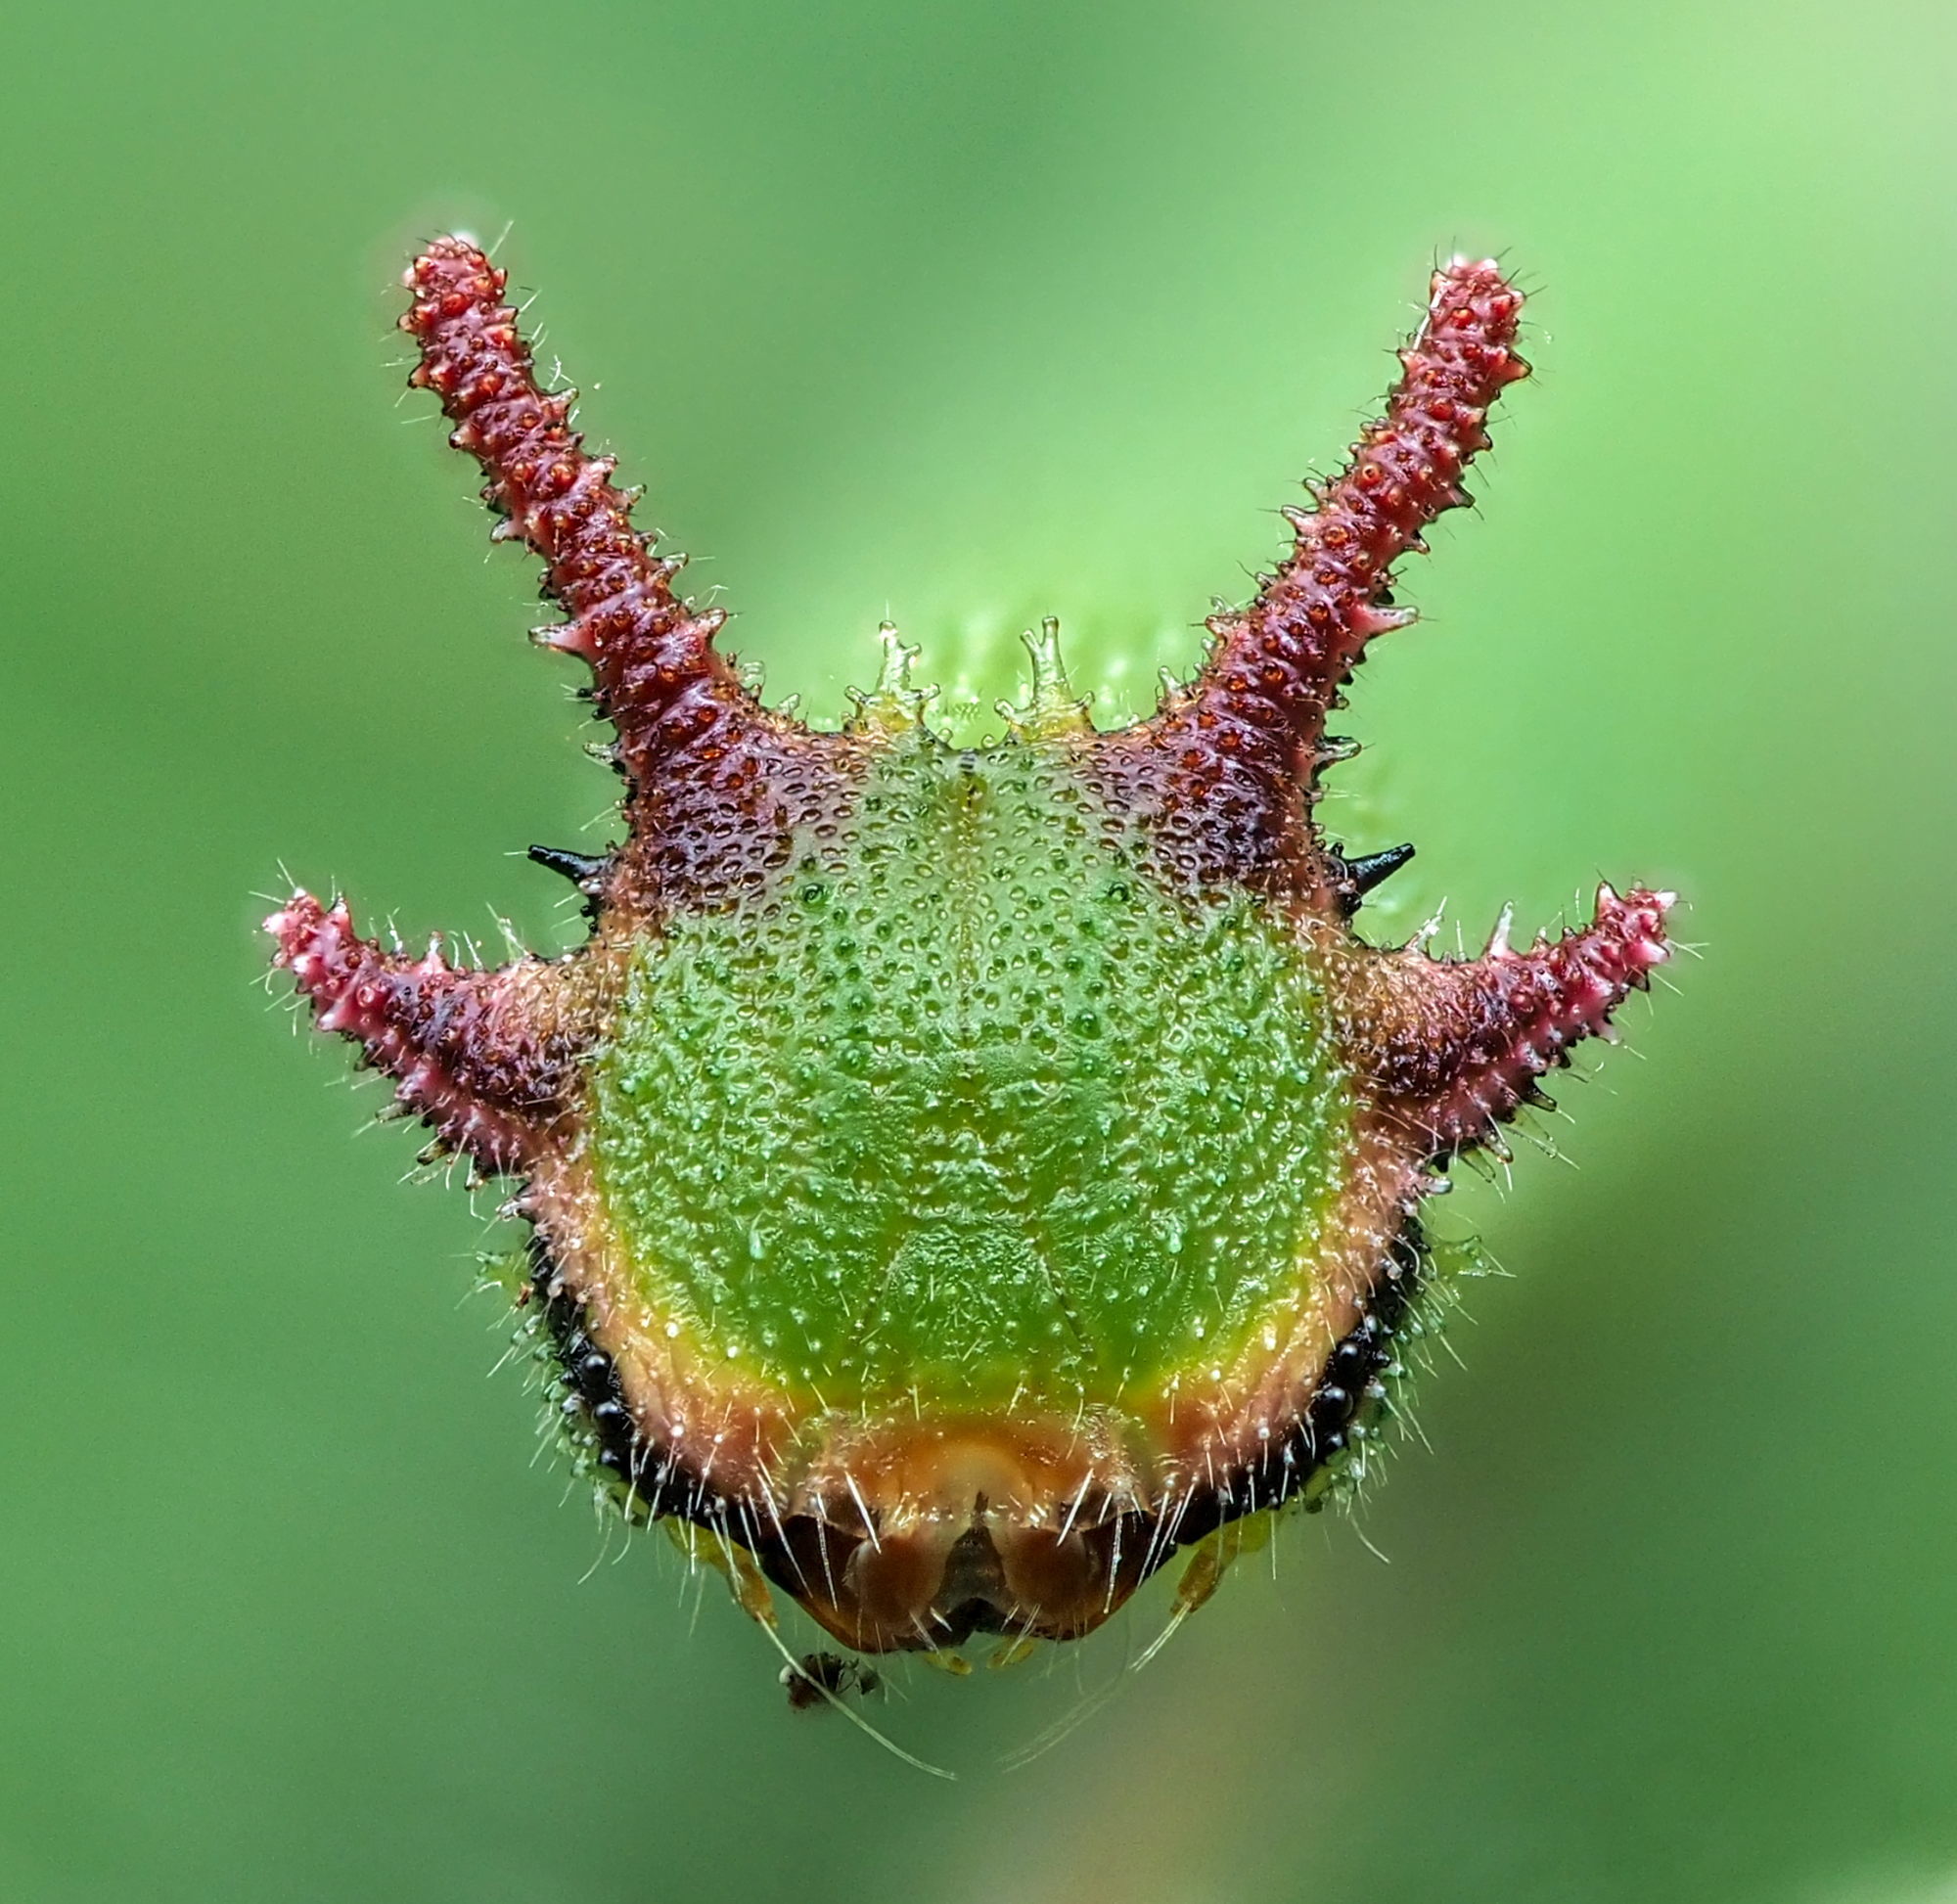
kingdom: Animalia
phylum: Arthropoda
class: Insecta
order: Lepidoptera
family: Nymphalidae
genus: Charaxes
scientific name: Charaxes jasius
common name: Two tailed pasha
